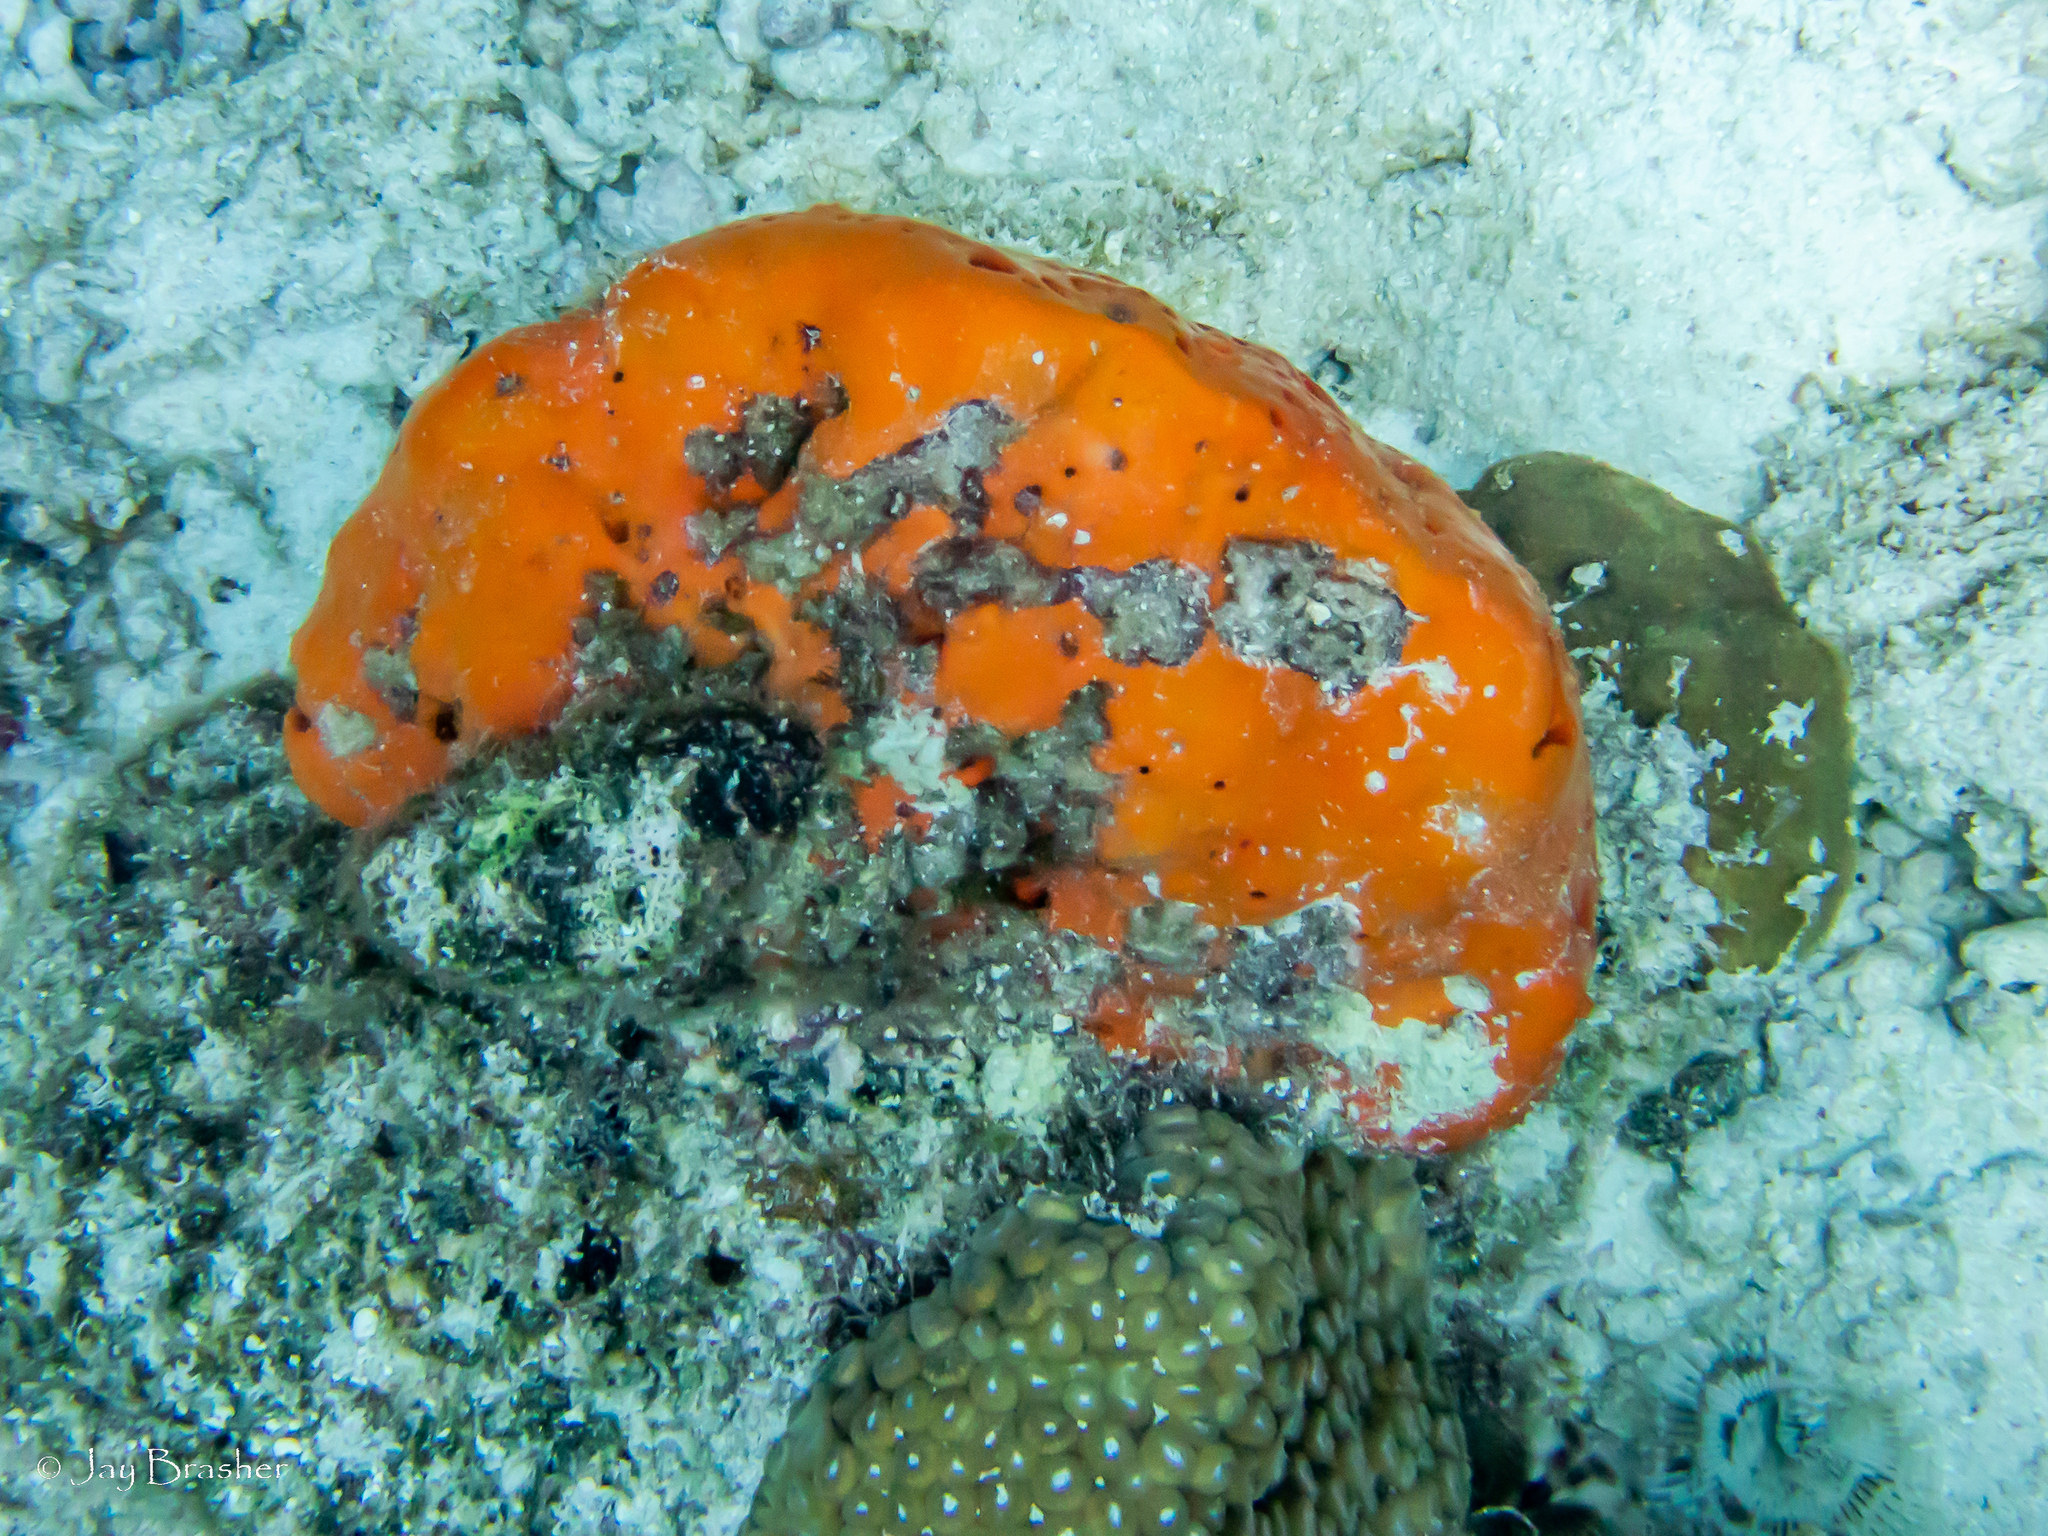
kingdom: Animalia
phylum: Porifera
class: Demospongiae
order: Agelasida
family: Agelasidae
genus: Agelas
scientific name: Agelas sventres
